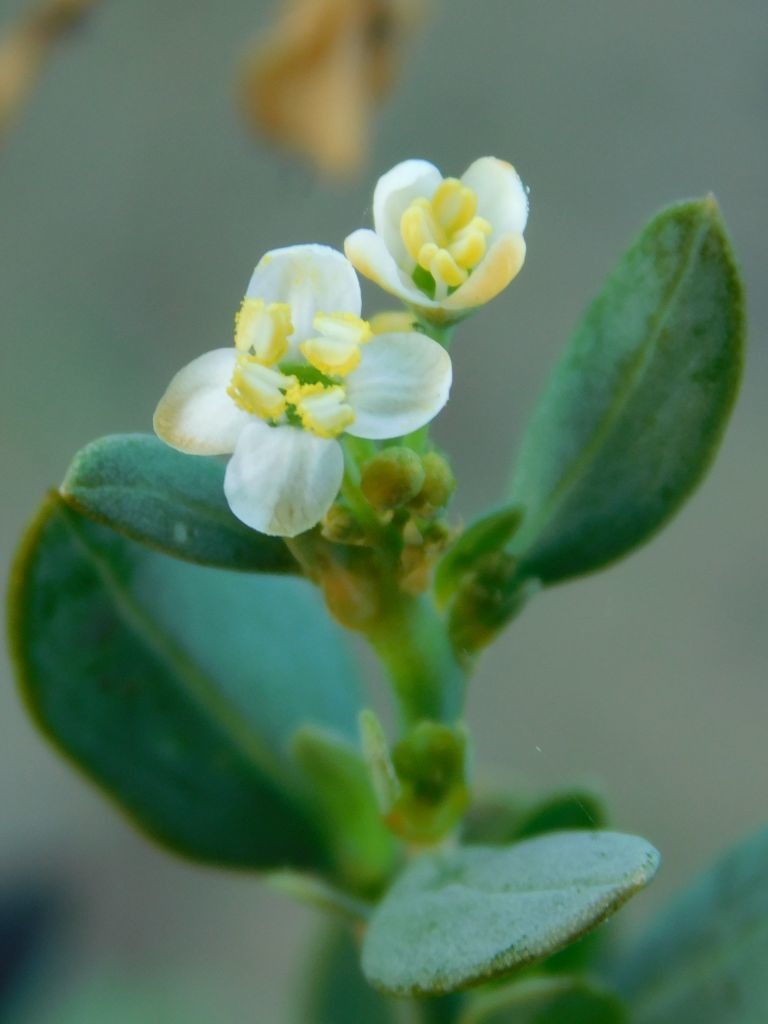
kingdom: Plantae
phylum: Tracheophyta
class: Magnoliopsida
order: Solanales
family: Montiniaceae
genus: Montinia
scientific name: Montinia caryophyllacea
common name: Wild clove-bush
